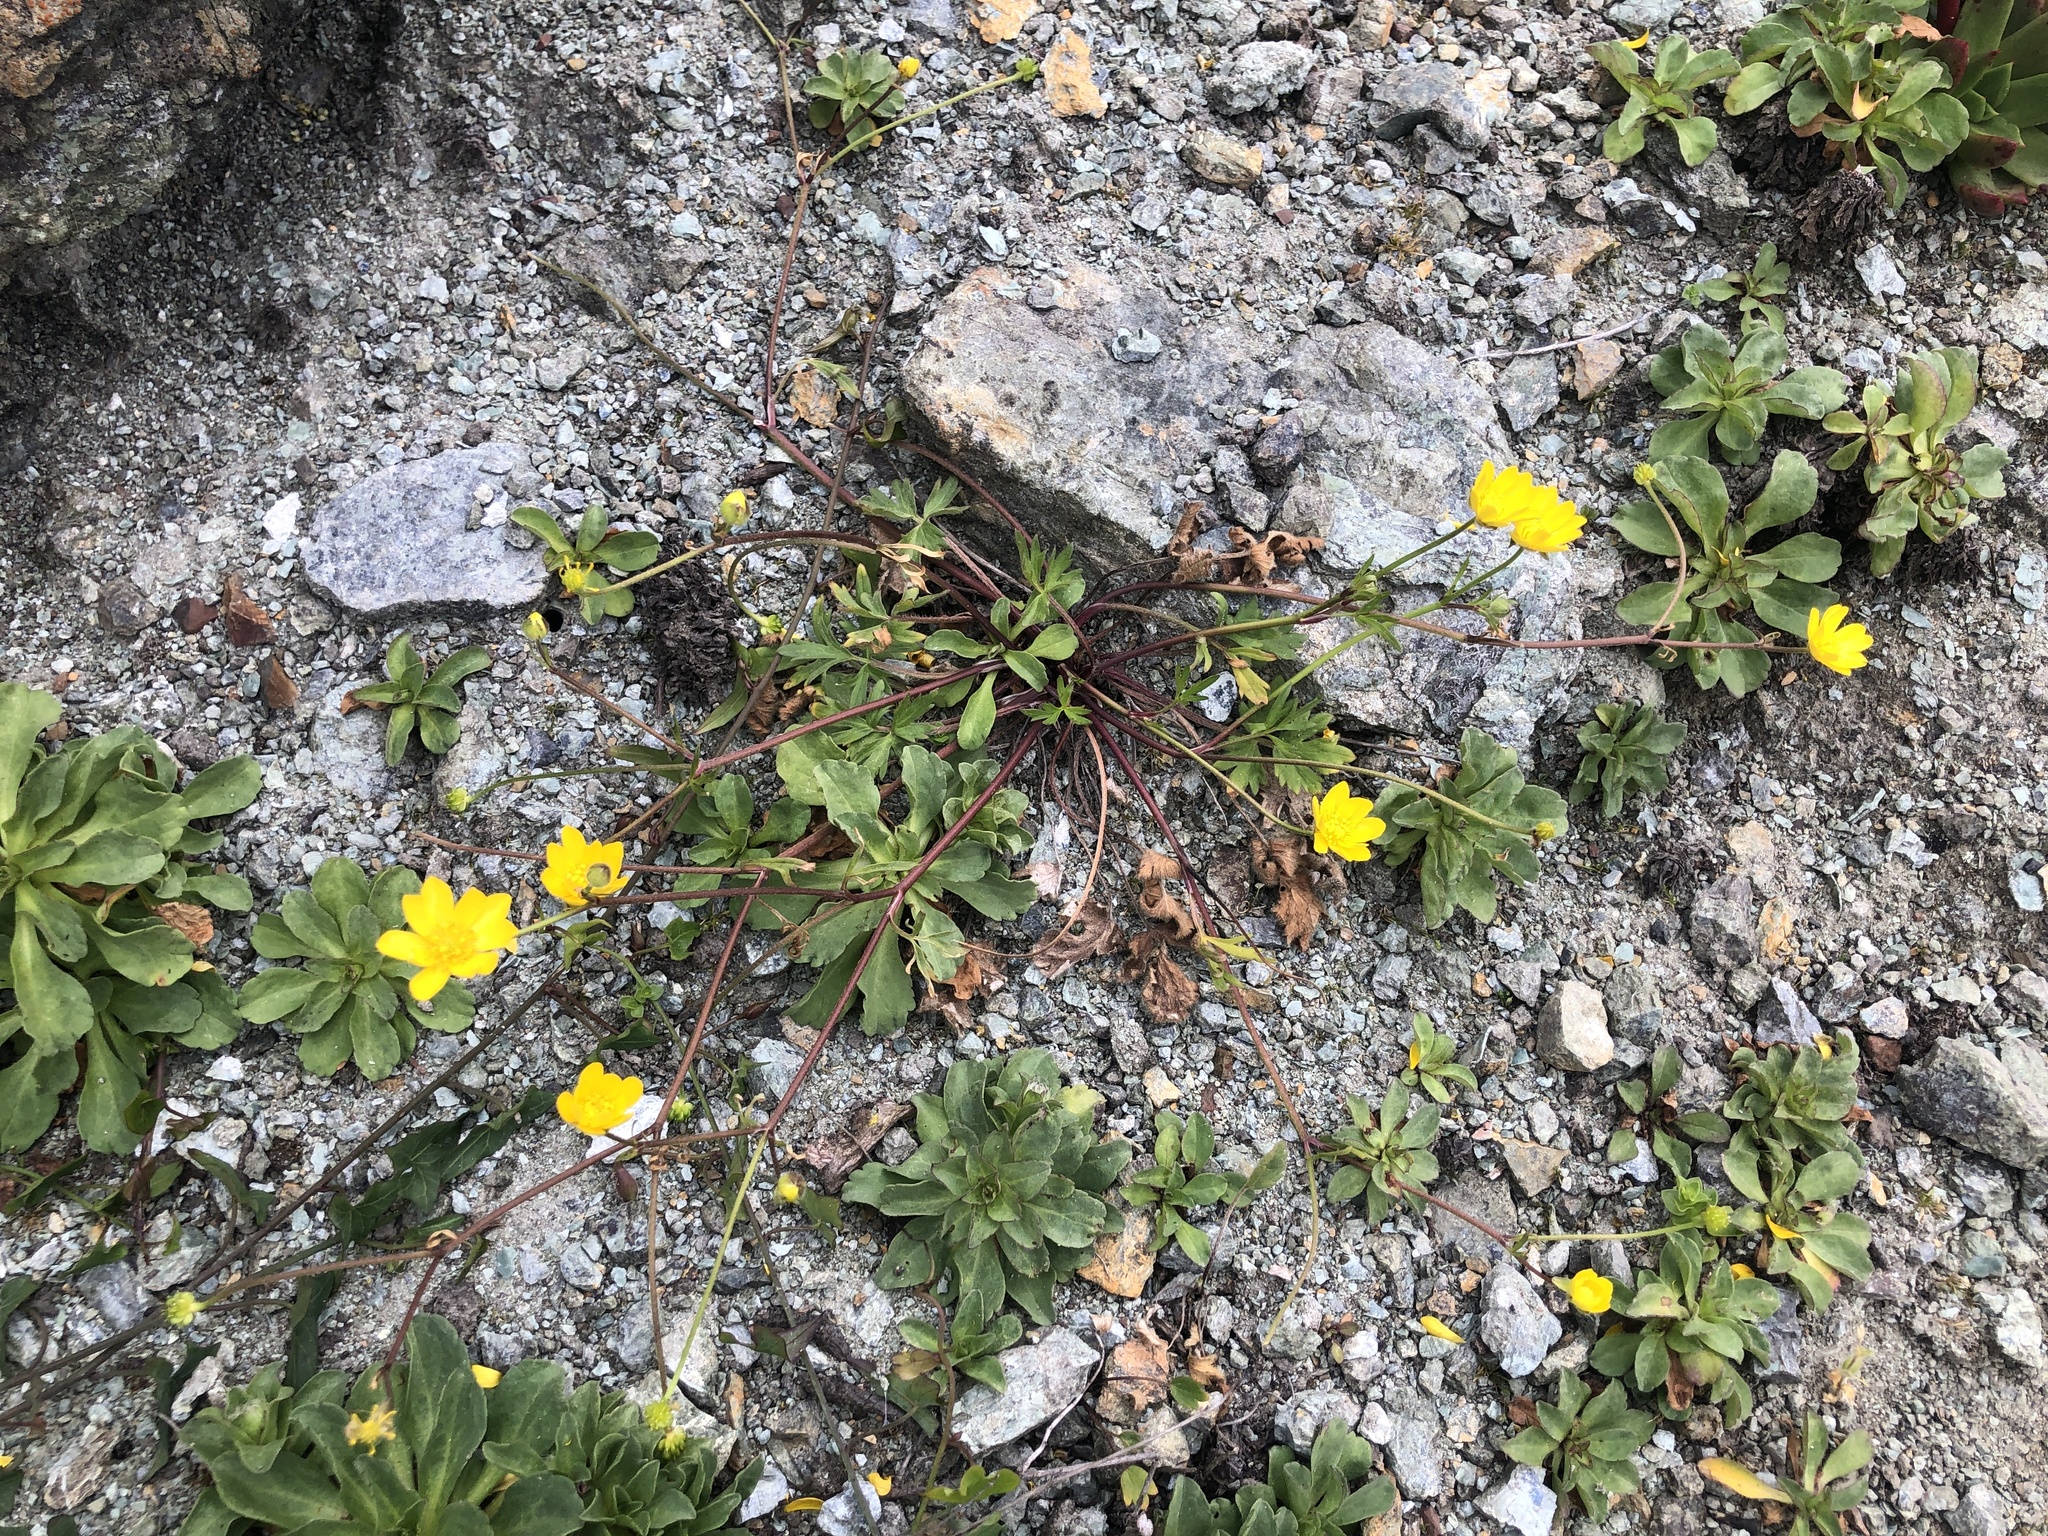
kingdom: Plantae
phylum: Tracheophyta
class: Magnoliopsida
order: Ranunculales
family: Ranunculaceae
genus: Ranunculus
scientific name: Ranunculus californicus
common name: California buttercup
